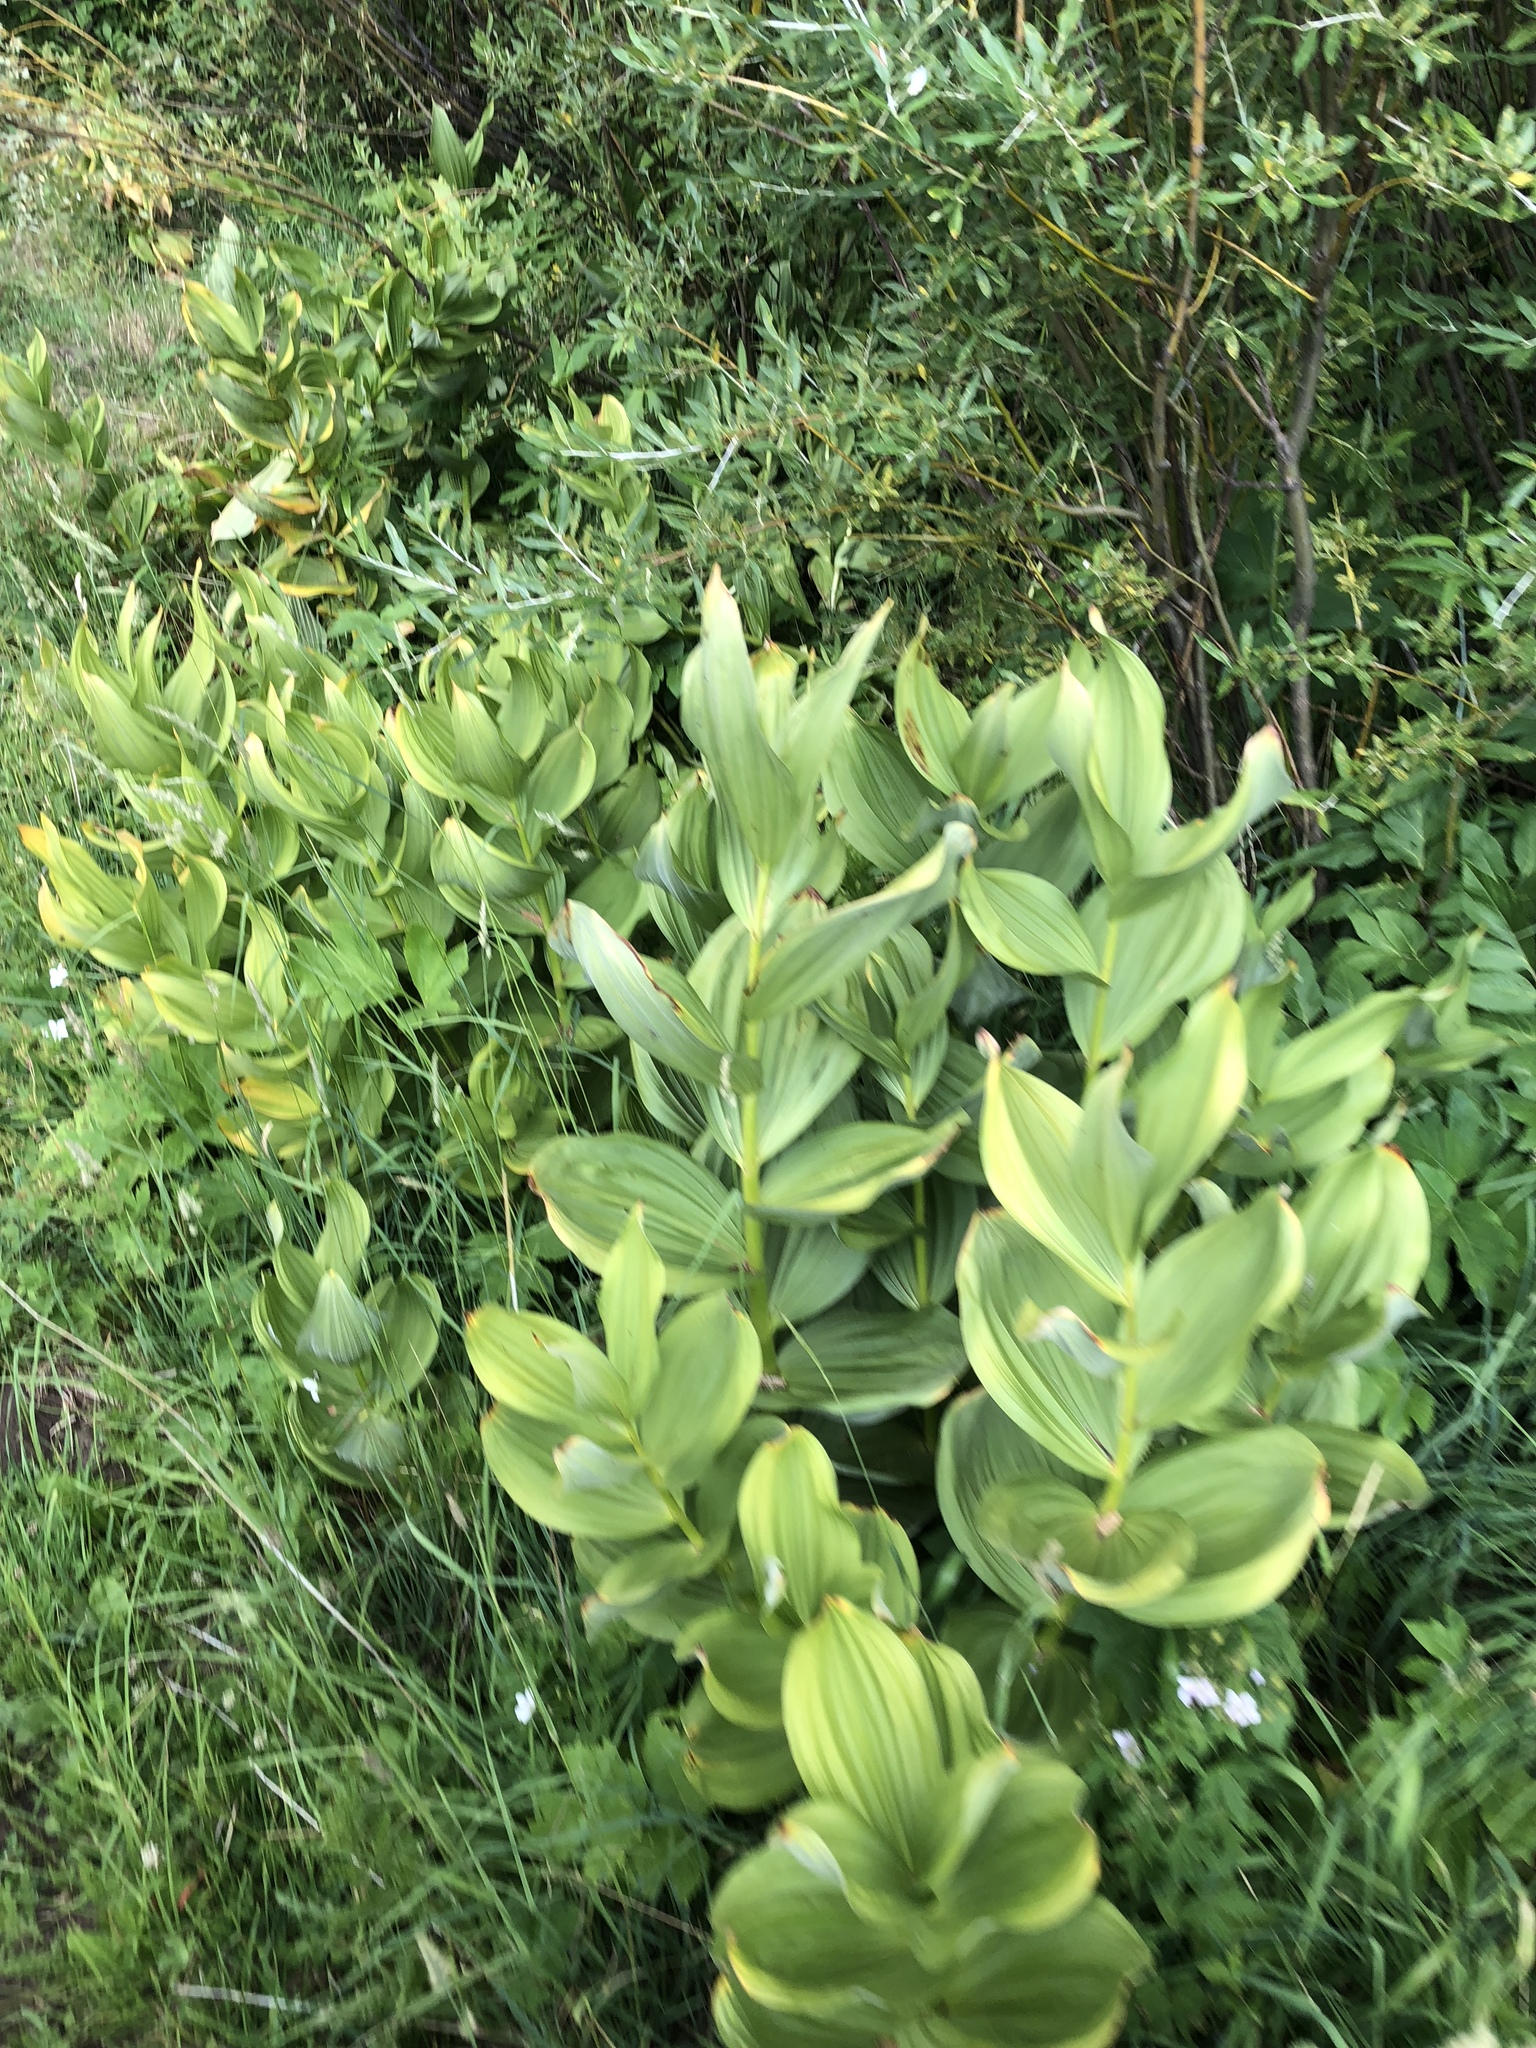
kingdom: Plantae
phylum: Tracheophyta
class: Liliopsida
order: Liliales
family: Melanthiaceae
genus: Veratrum
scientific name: Veratrum californicum
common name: California veratrum
